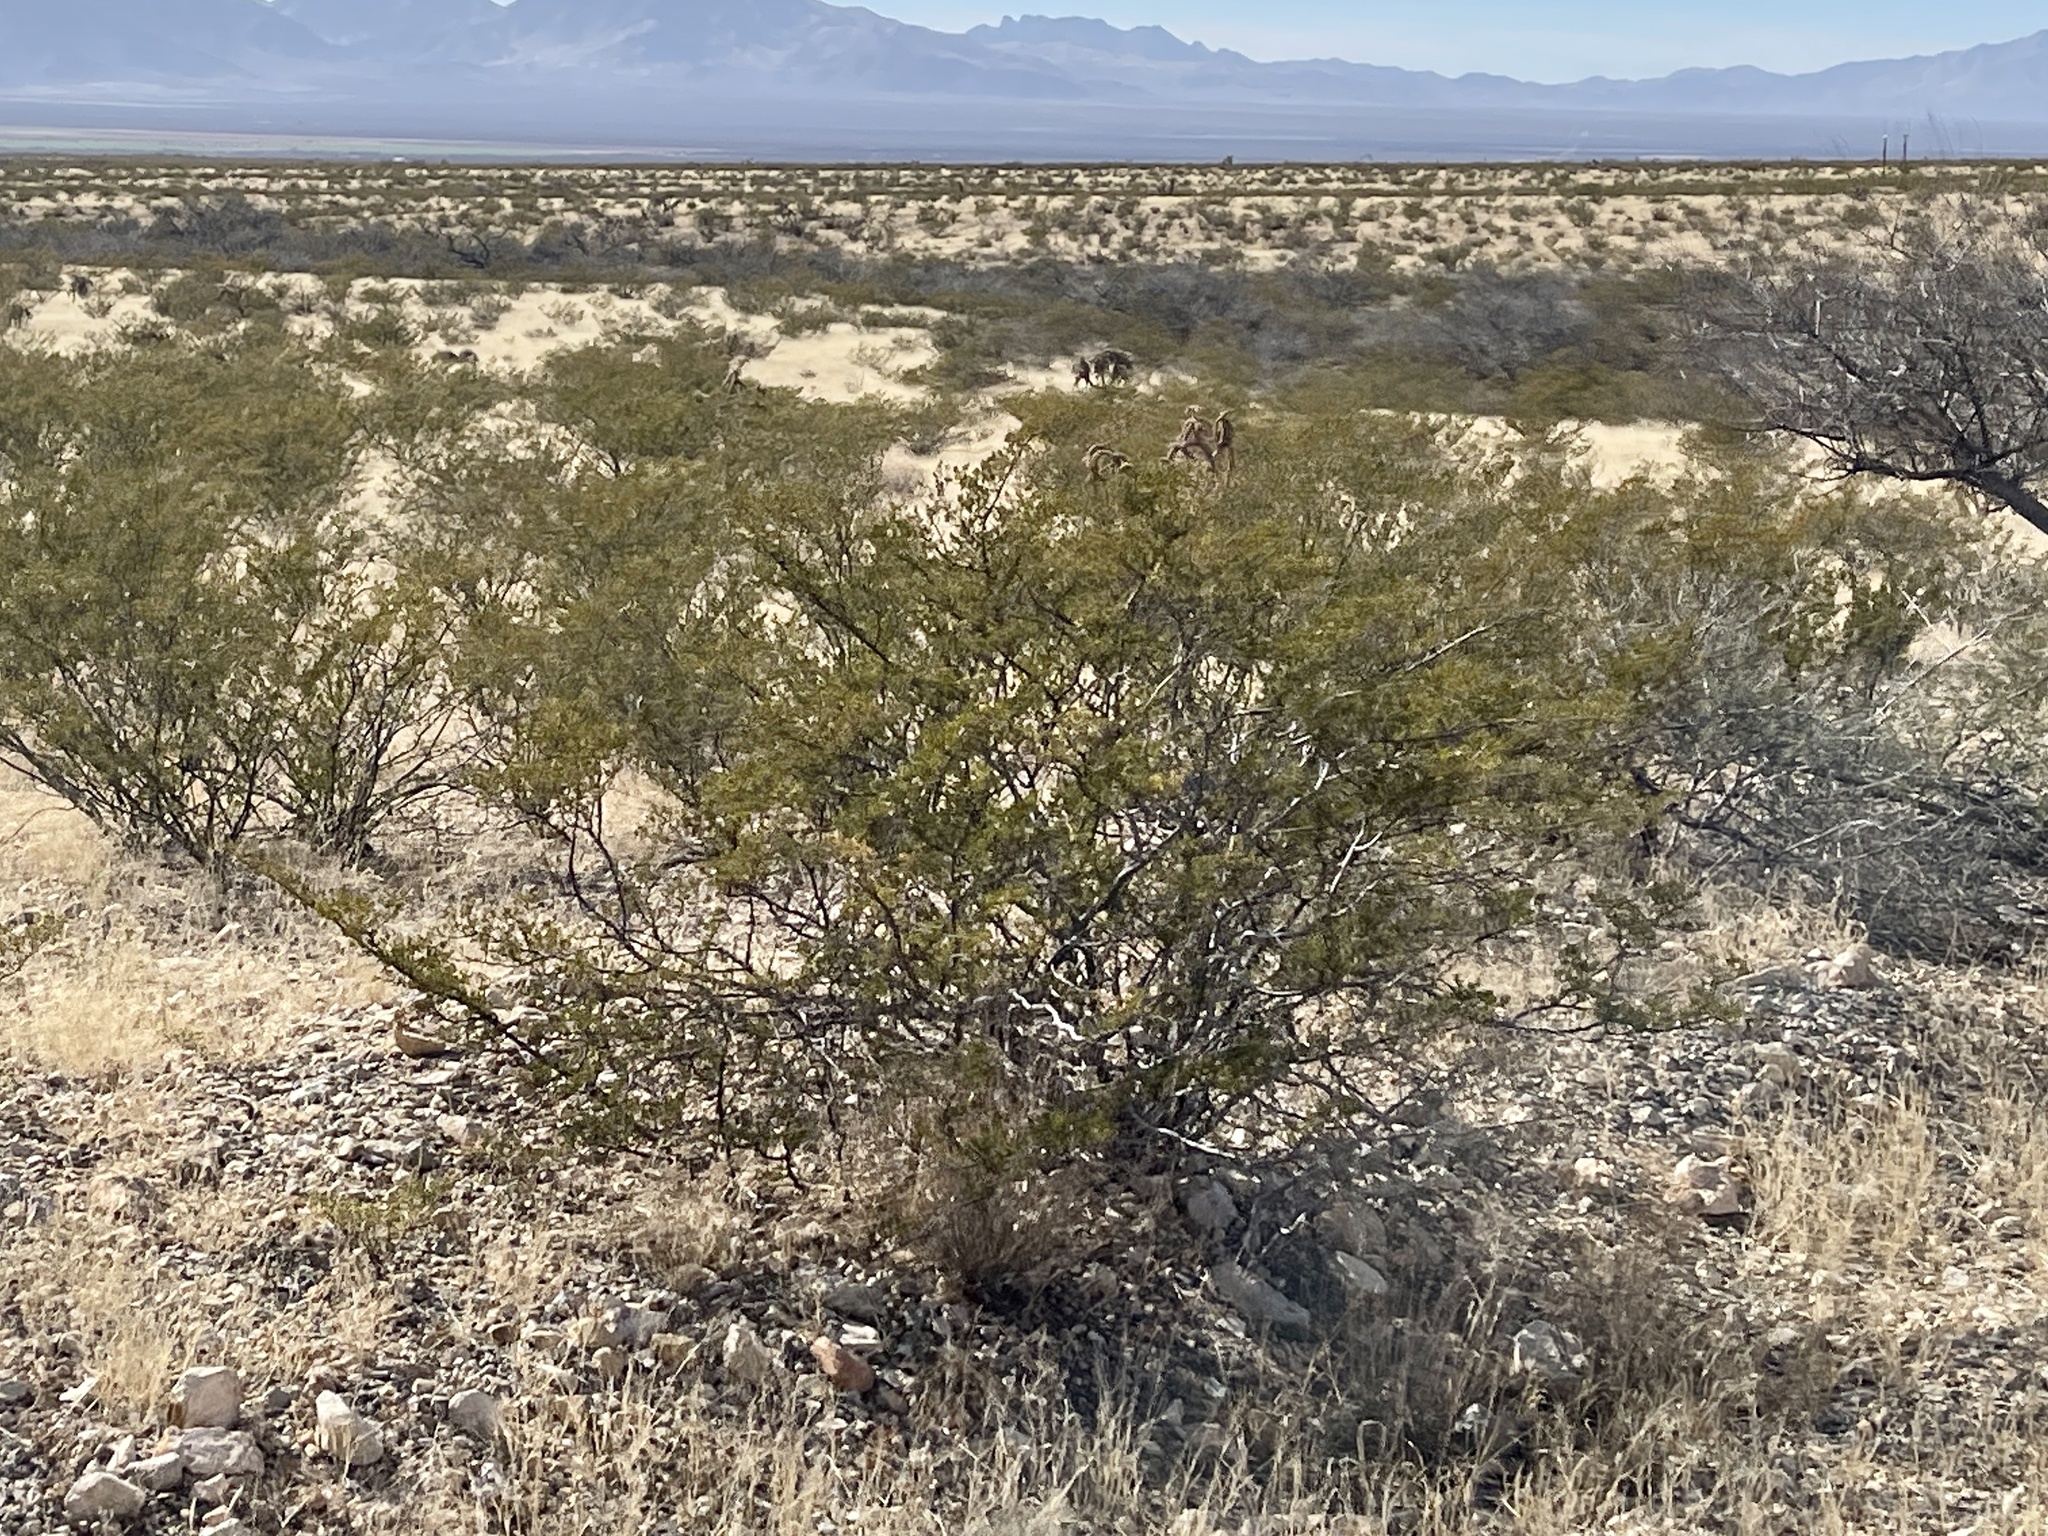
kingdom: Plantae
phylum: Tracheophyta
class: Magnoliopsida
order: Zygophyllales
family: Zygophyllaceae
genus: Larrea
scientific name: Larrea tridentata
